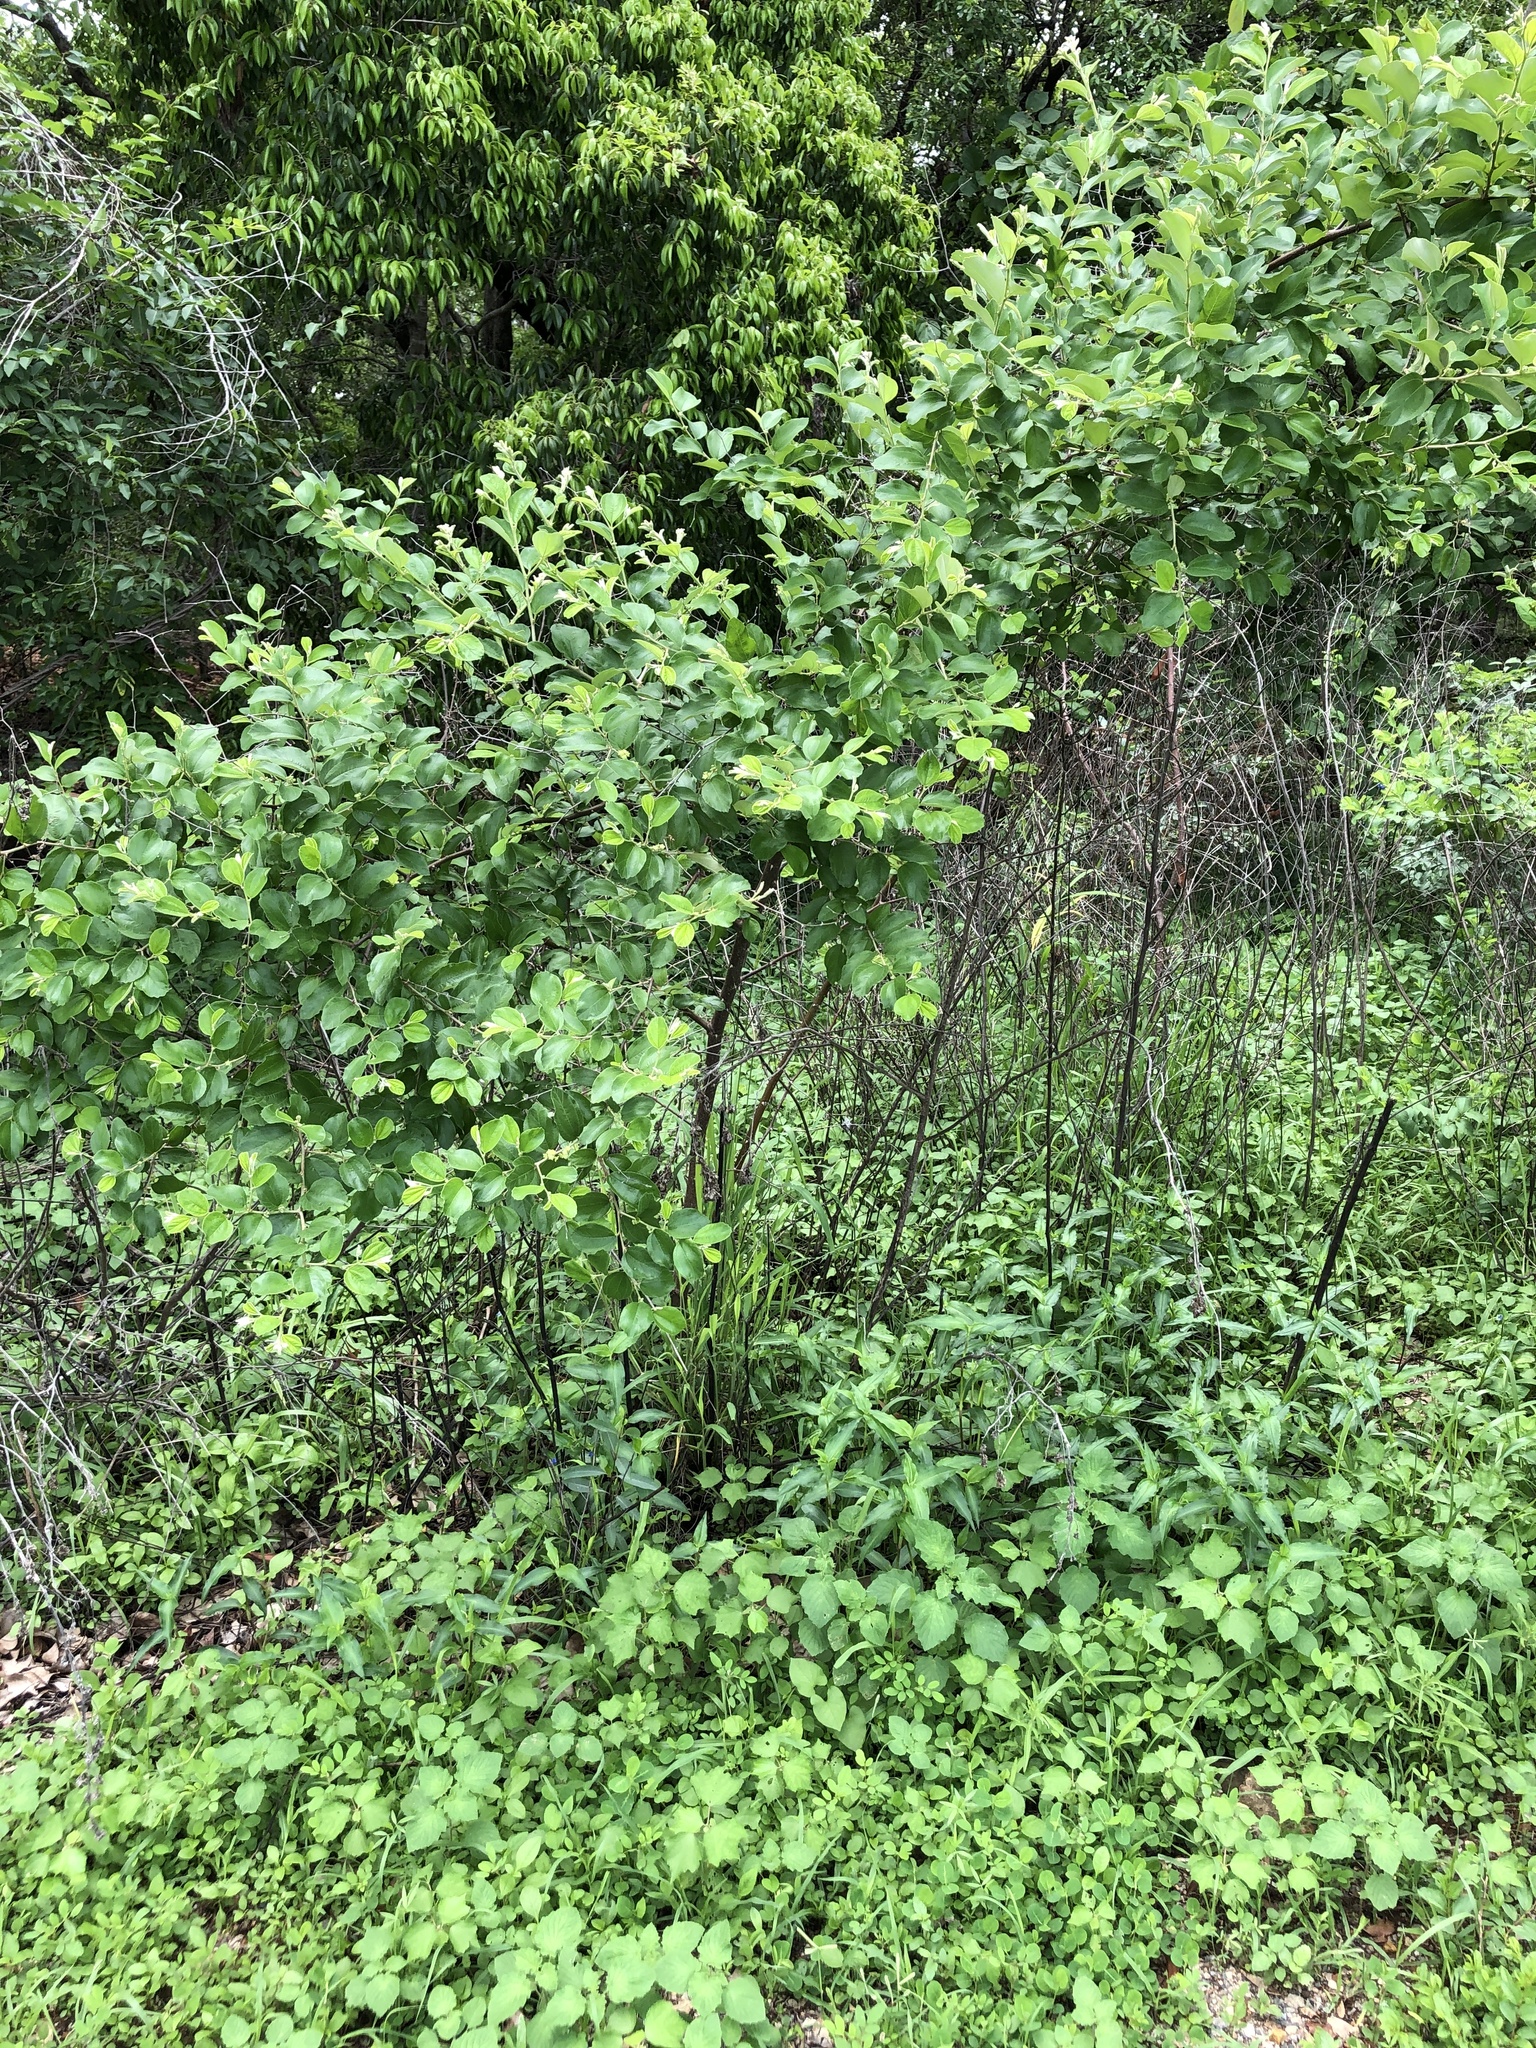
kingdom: Plantae
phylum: Tracheophyta
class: Magnoliopsida
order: Rosales
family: Rhamnaceae
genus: Ziziphus
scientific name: Ziziphus mauritiana
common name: Indian jujube
